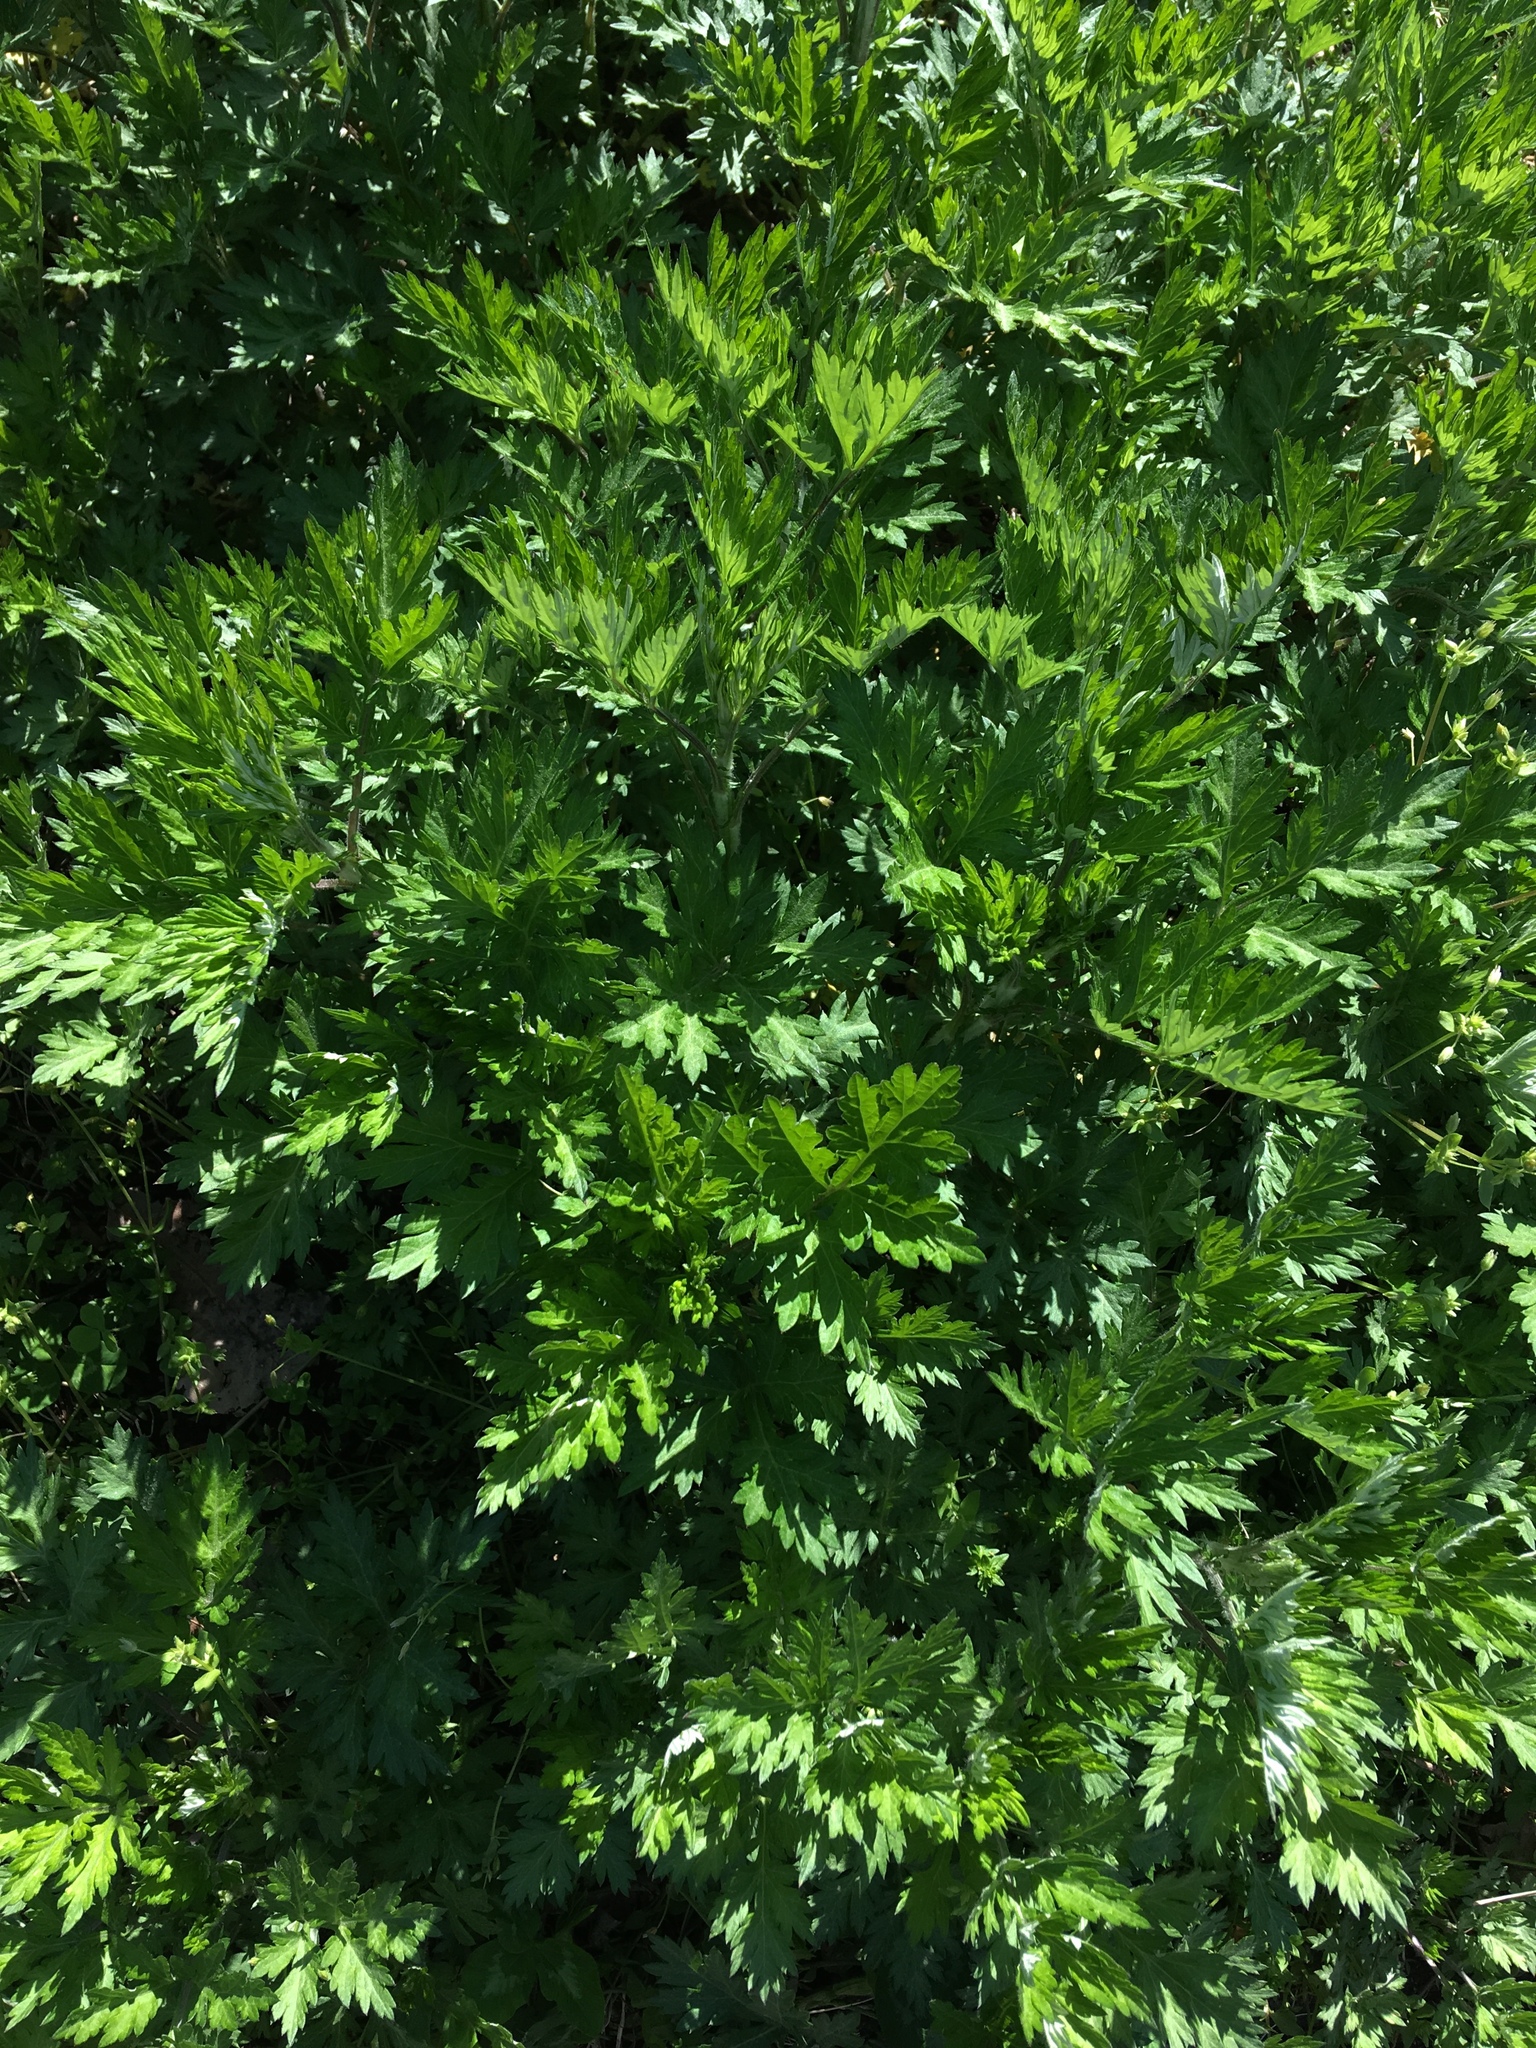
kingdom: Plantae
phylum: Tracheophyta
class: Magnoliopsida
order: Asterales
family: Asteraceae
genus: Artemisia
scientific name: Artemisia vulgaris
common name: Mugwort
